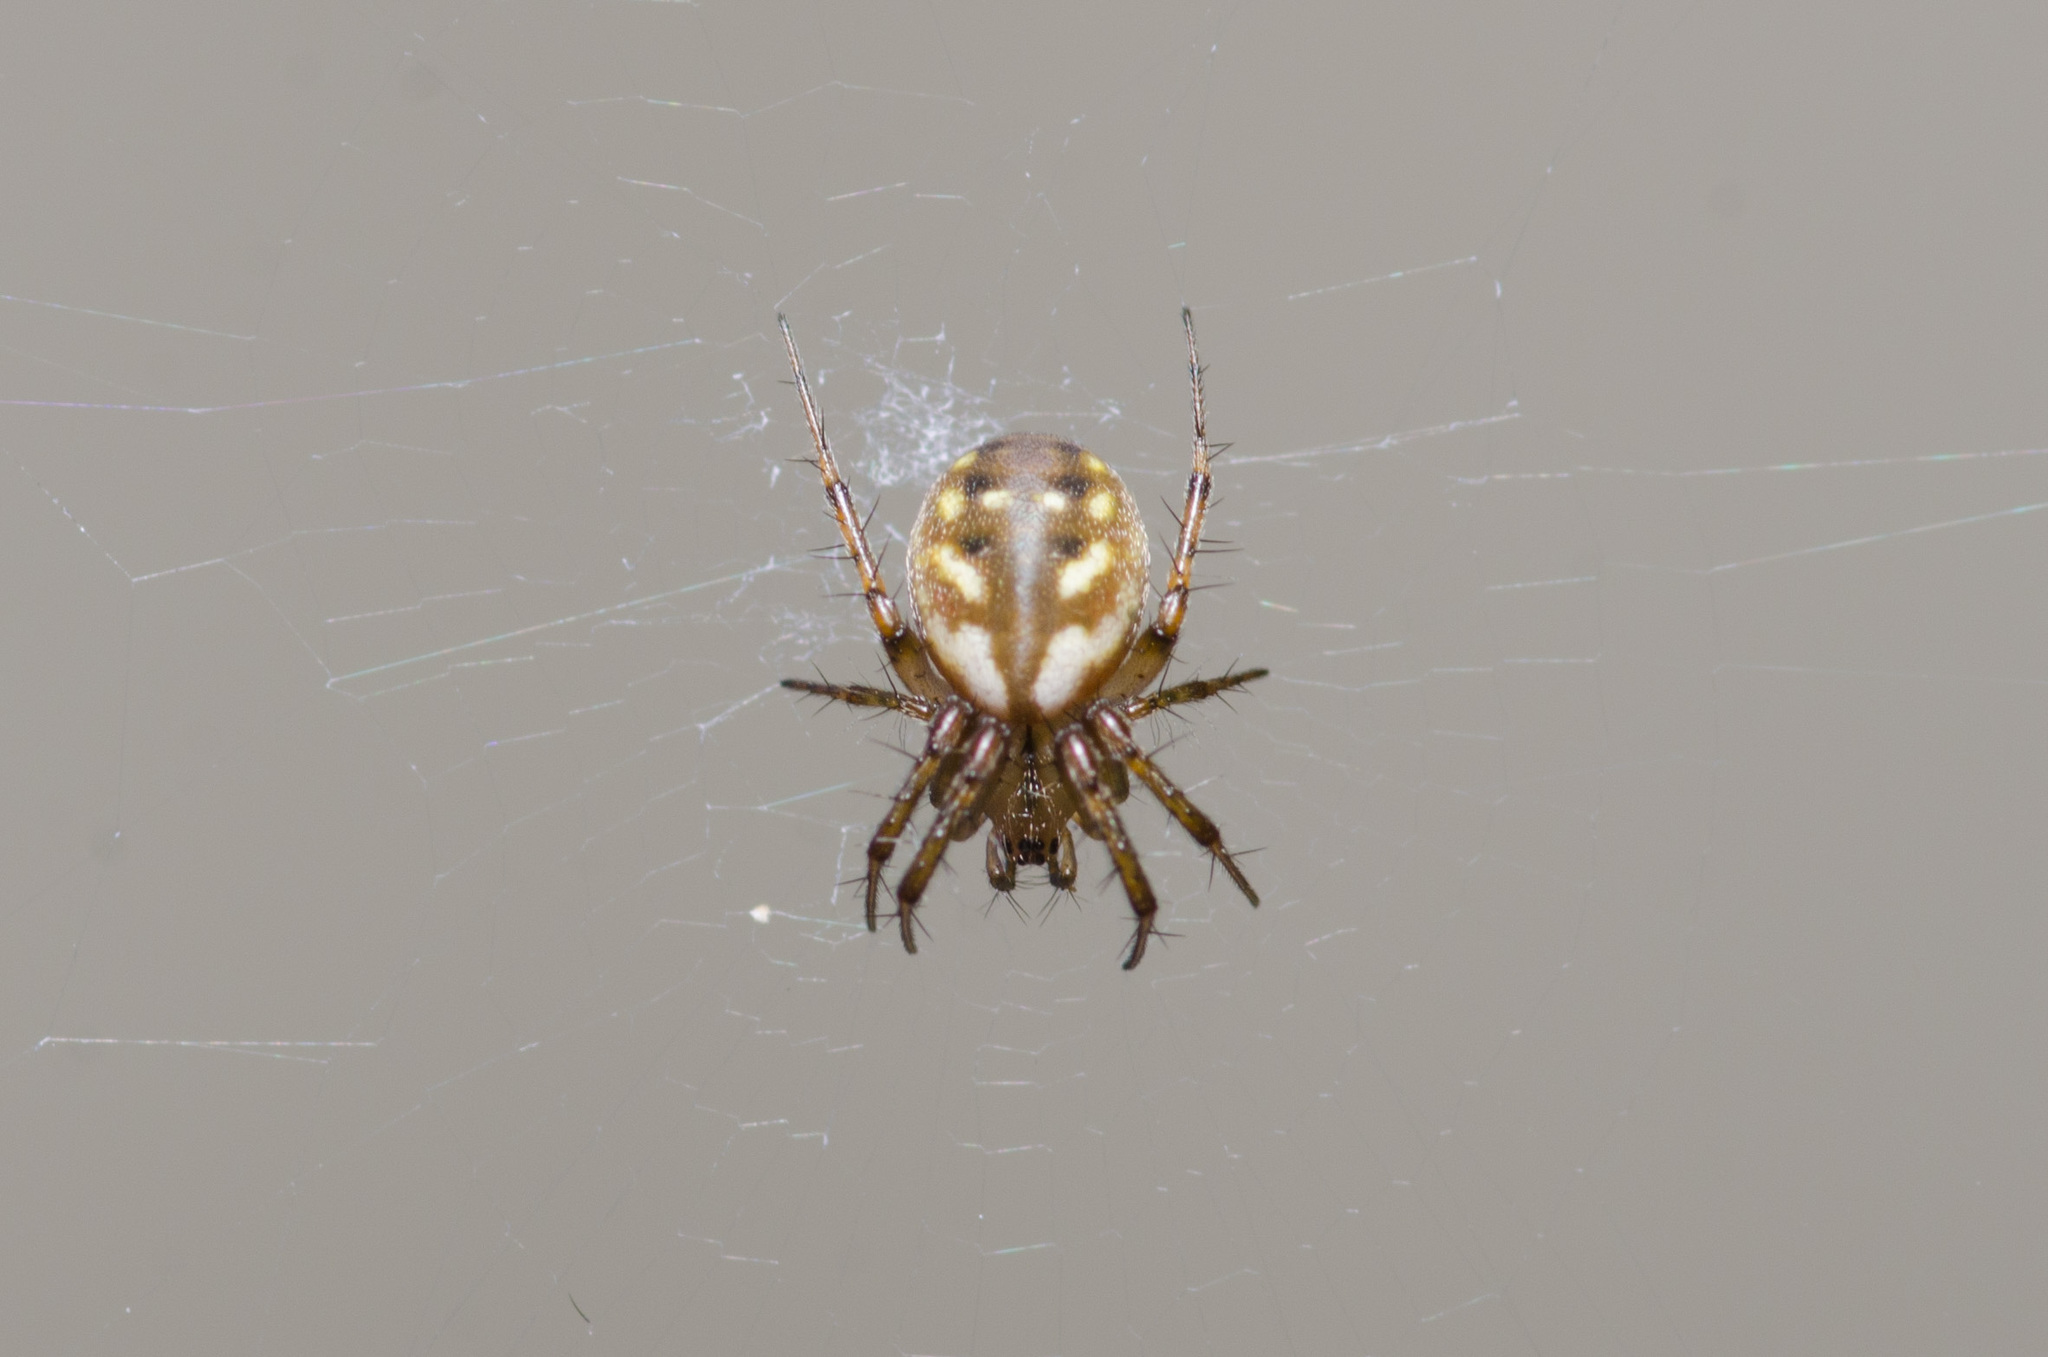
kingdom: Animalia
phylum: Arthropoda
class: Arachnida
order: Araneae
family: Araneidae
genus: Mangora
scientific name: Mangora placida
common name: Tuft-legged orbweaver
